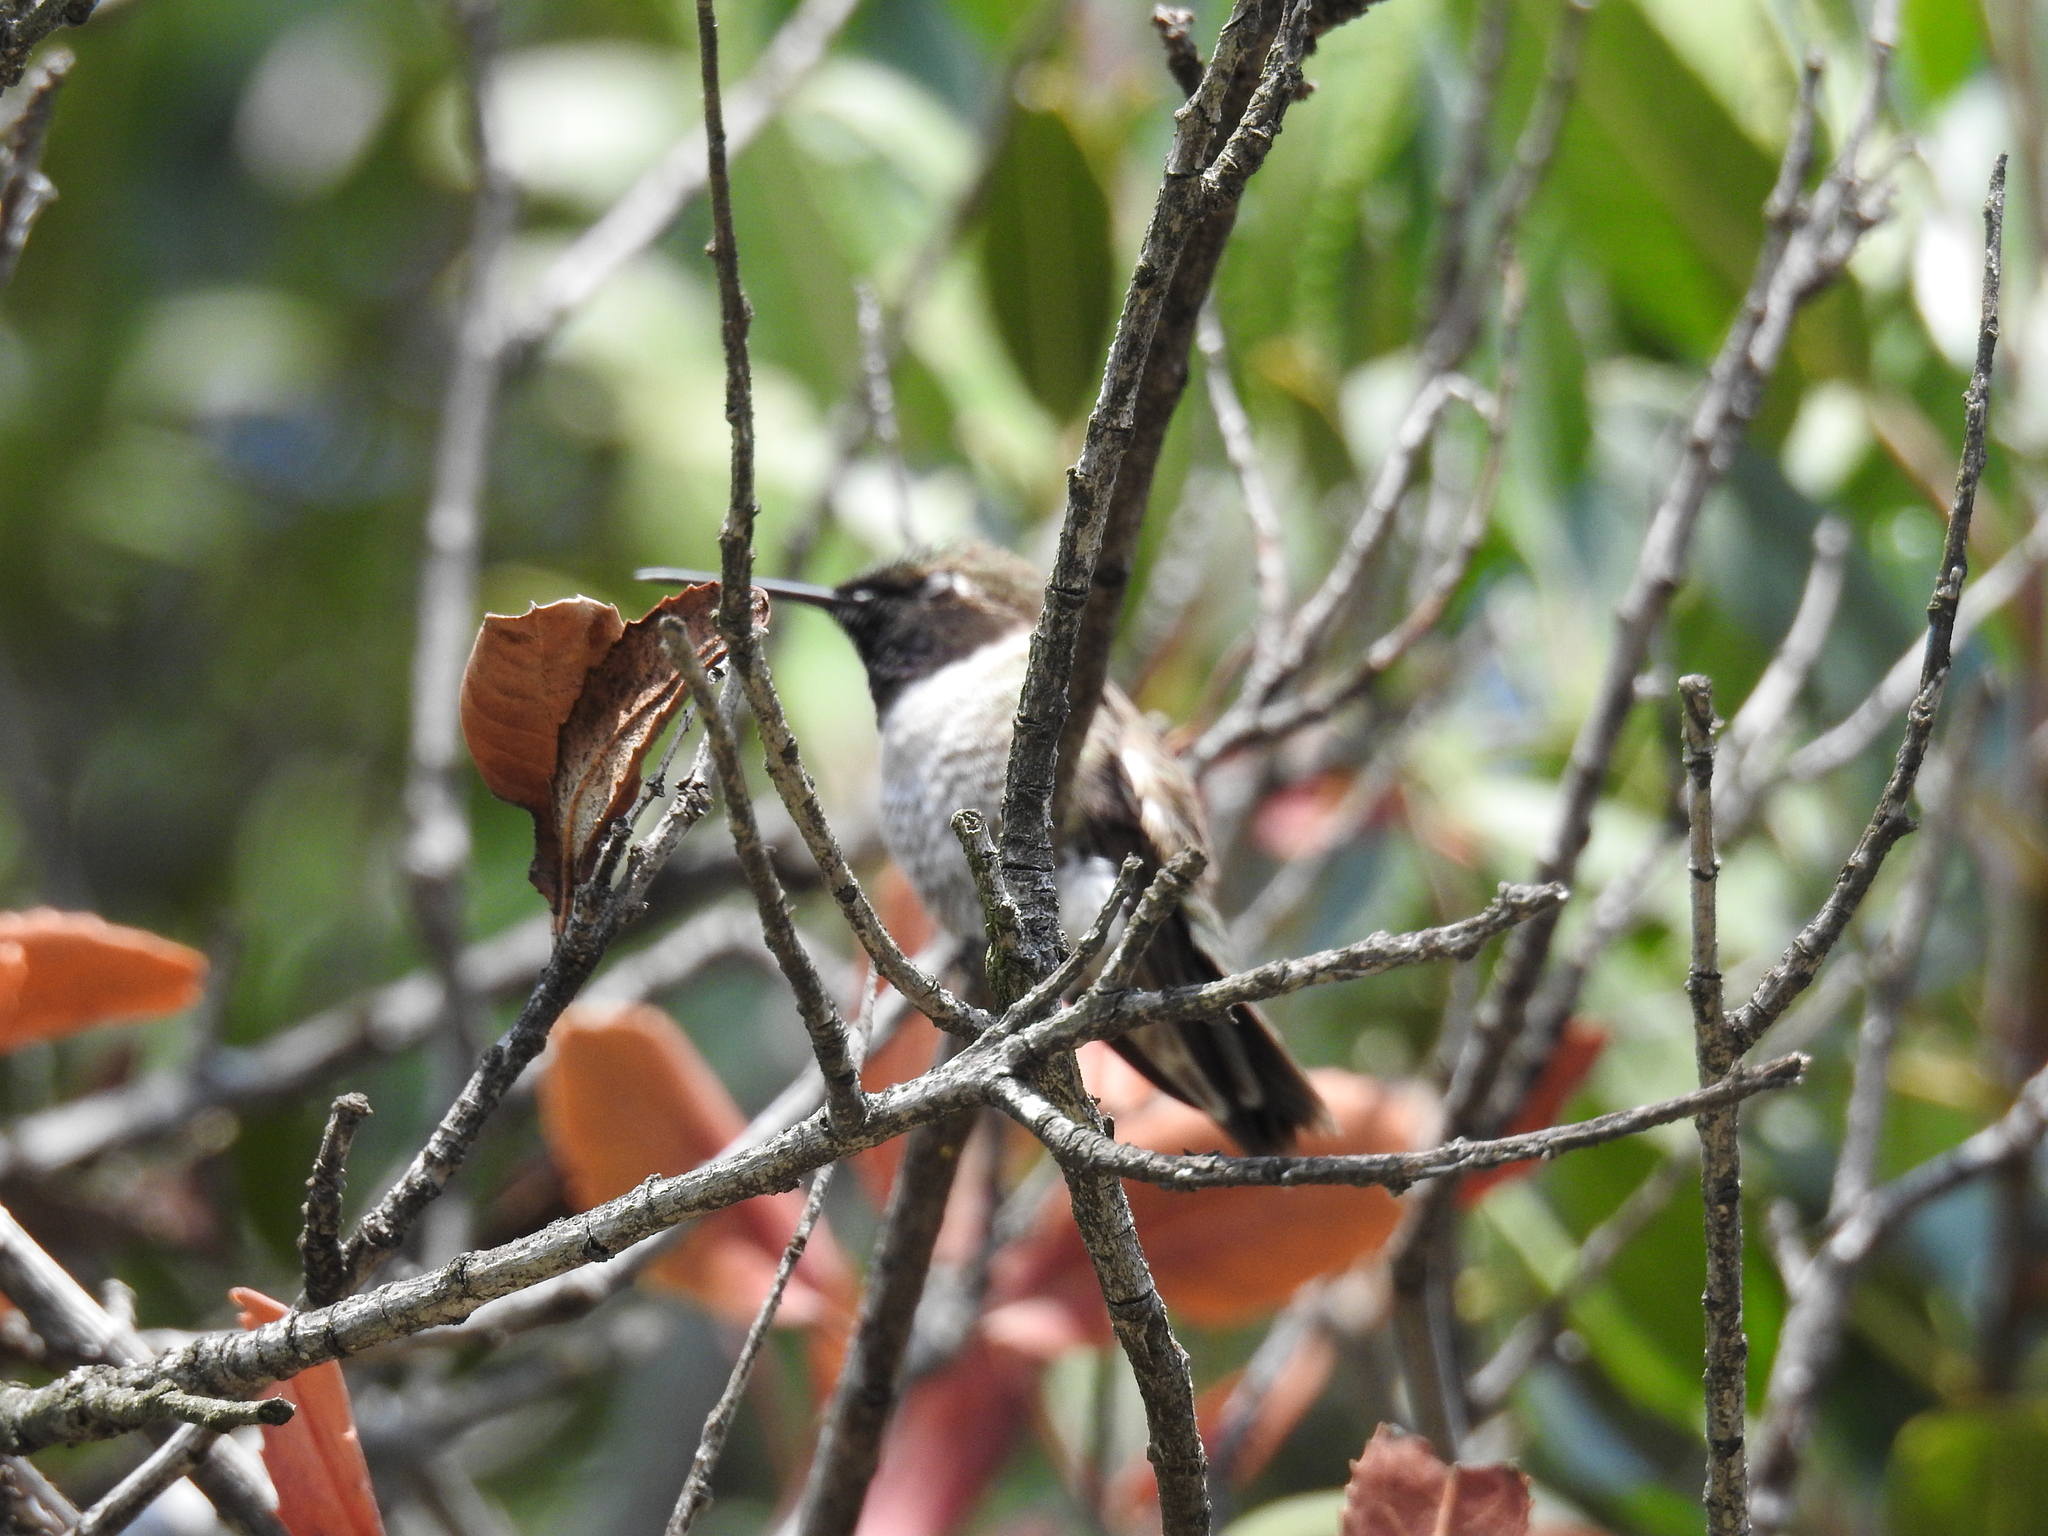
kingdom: Animalia
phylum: Chordata
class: Aves
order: Apodiformes
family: Trochilidae
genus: Archilochus
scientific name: Archilochus alexandri
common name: Black-chinned hummingbird
